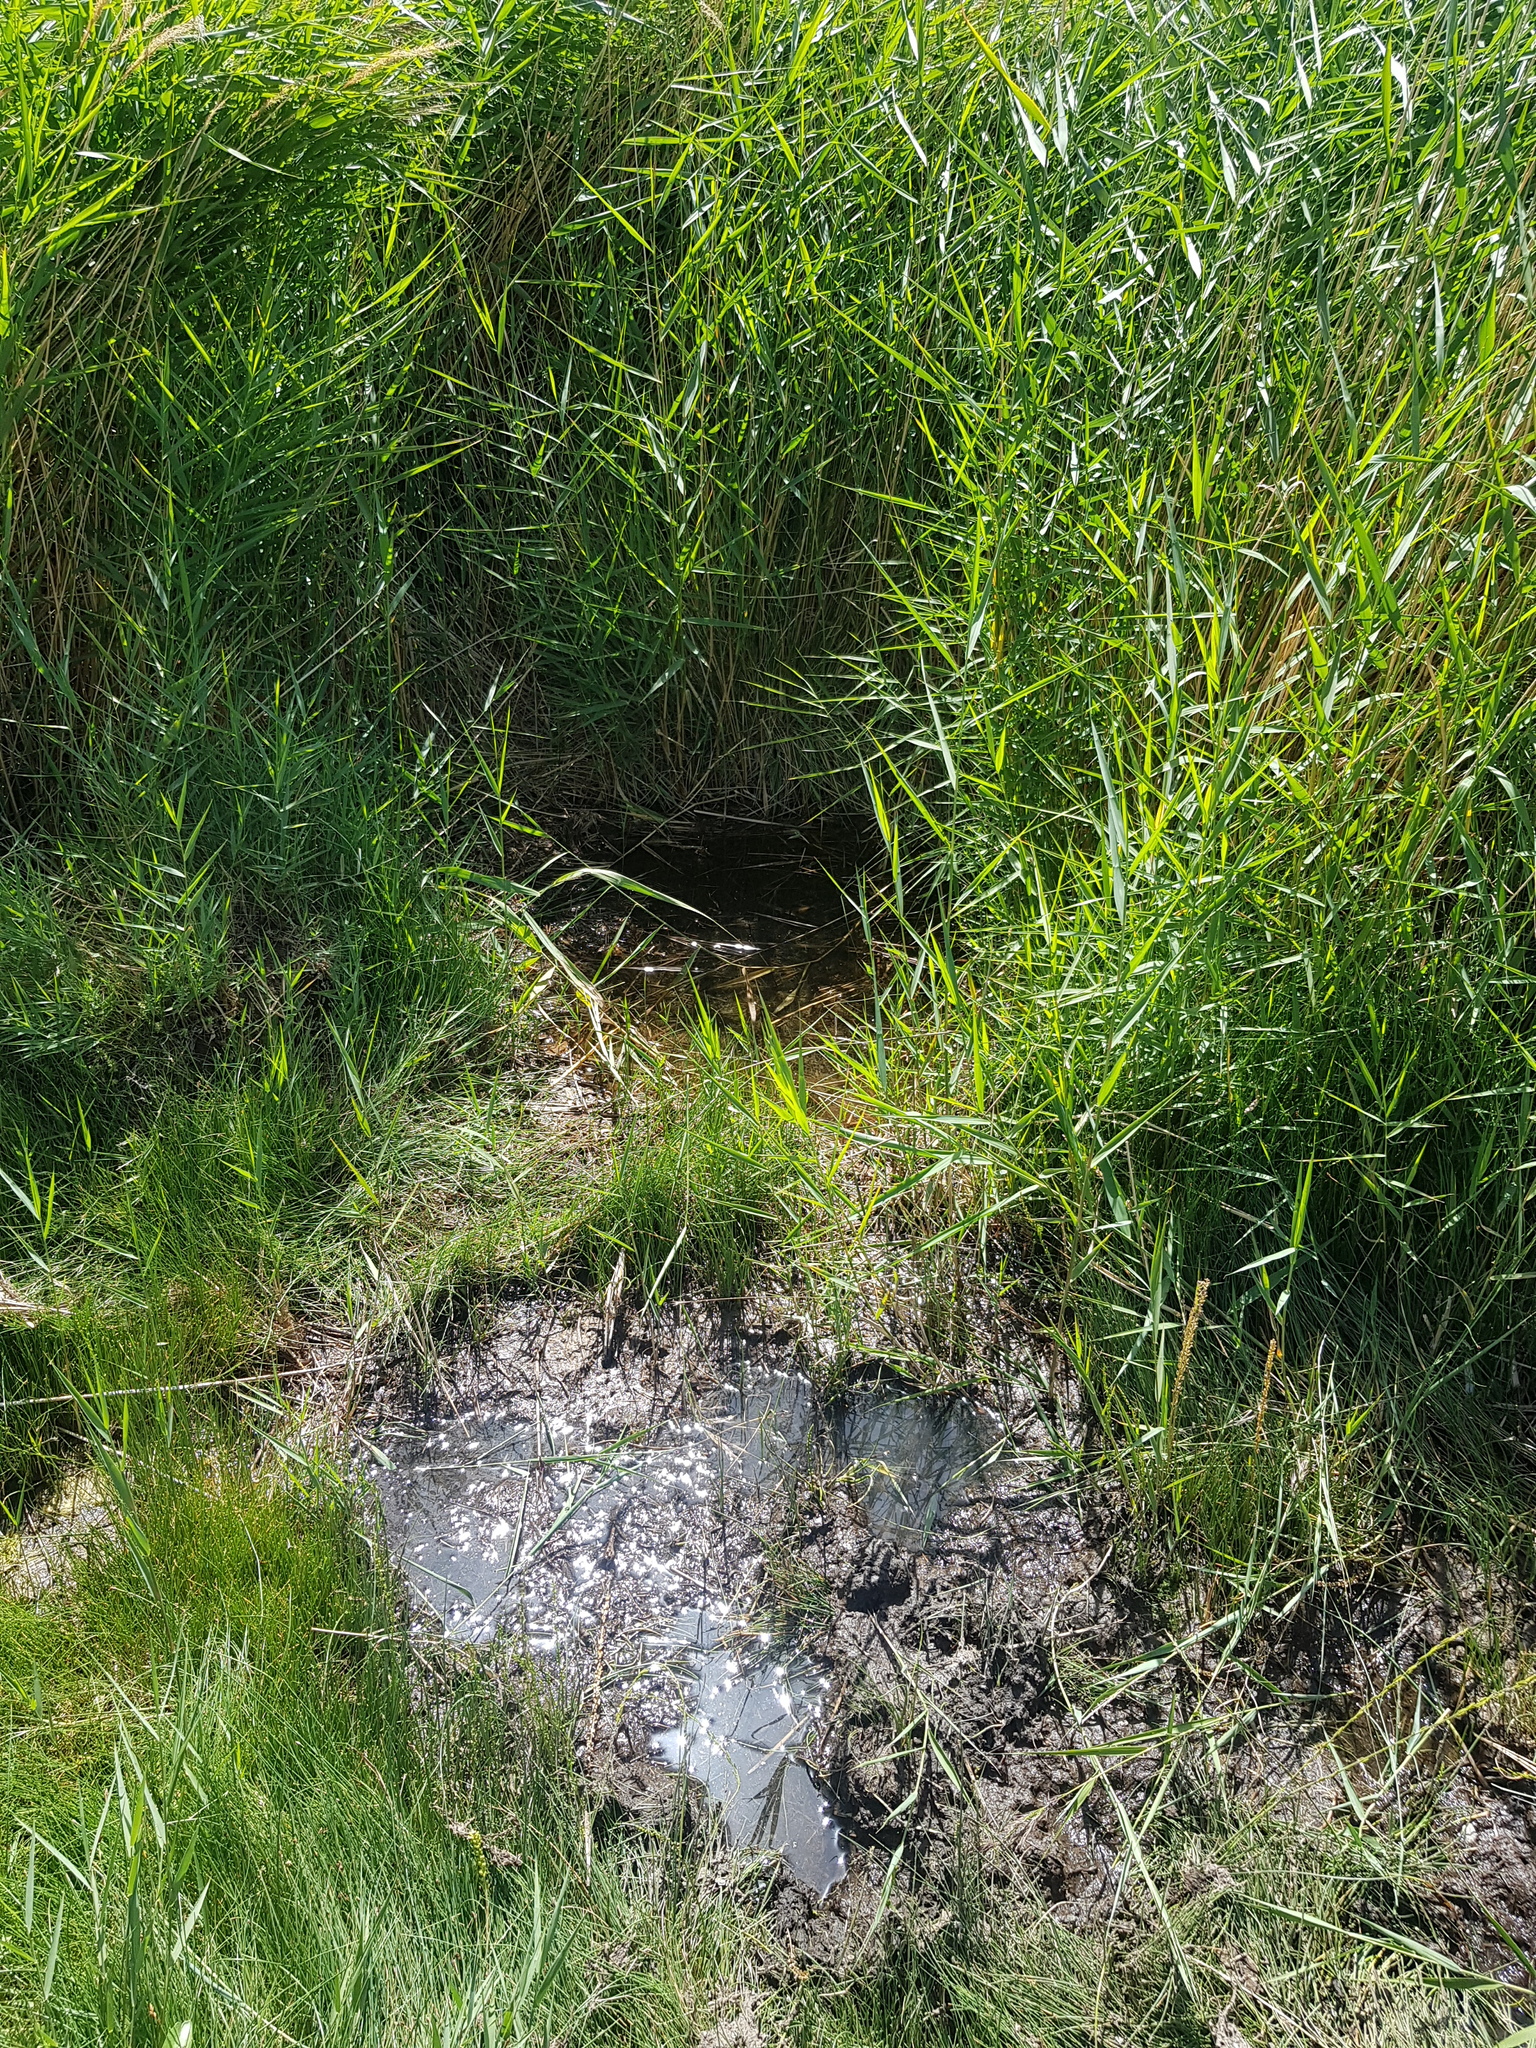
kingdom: Plantae
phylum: Tracheophyta
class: Liliopsida
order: Poales
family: Poaceae
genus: Phragmites
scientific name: Phragmites australis
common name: Common reed
